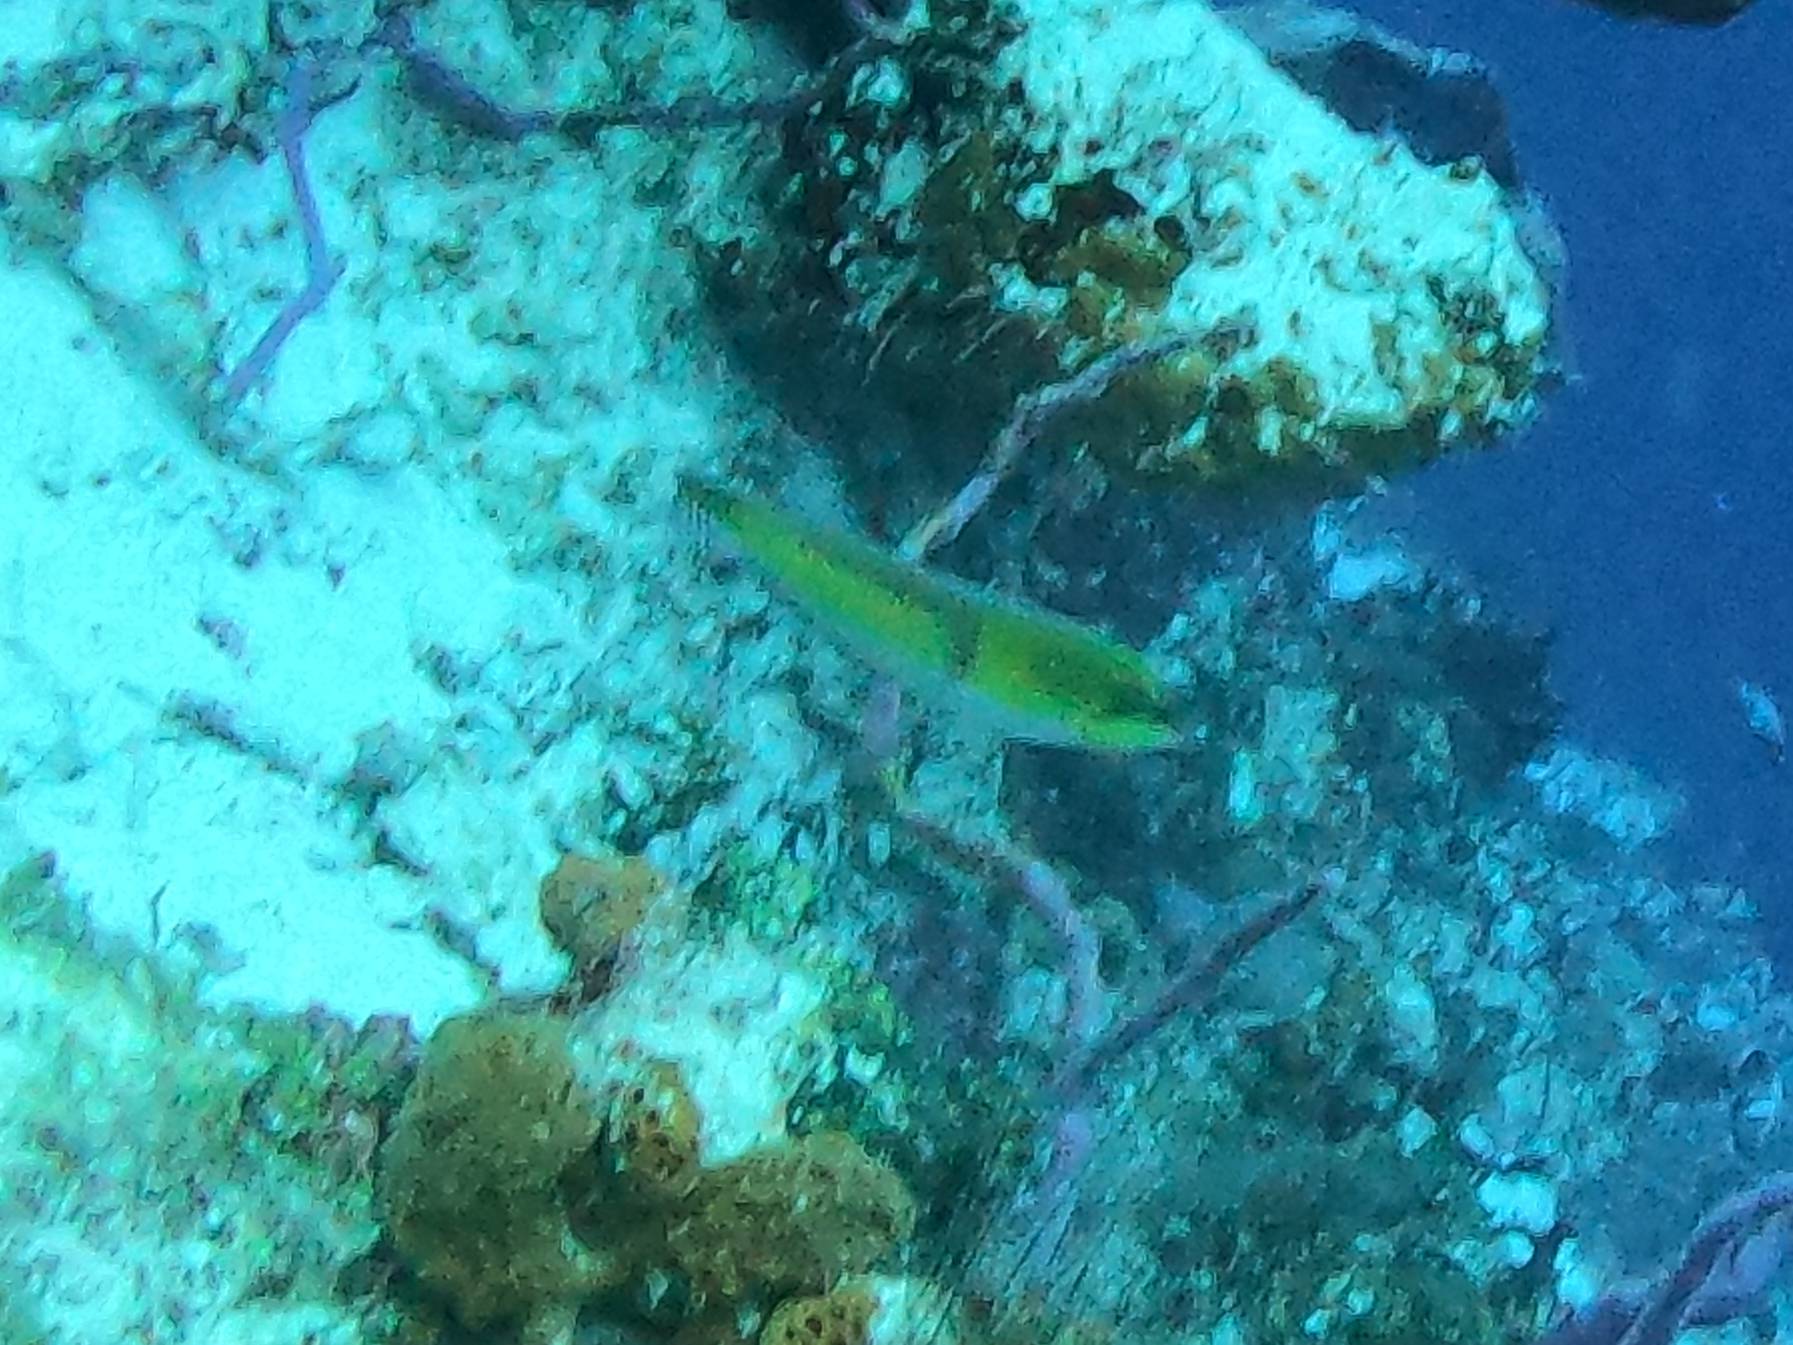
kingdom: Animalia
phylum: Chordata
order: Perciformes
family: Labridae
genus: Halichoeres
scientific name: Halichoeres garnoti
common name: Yellowhead wrasse
